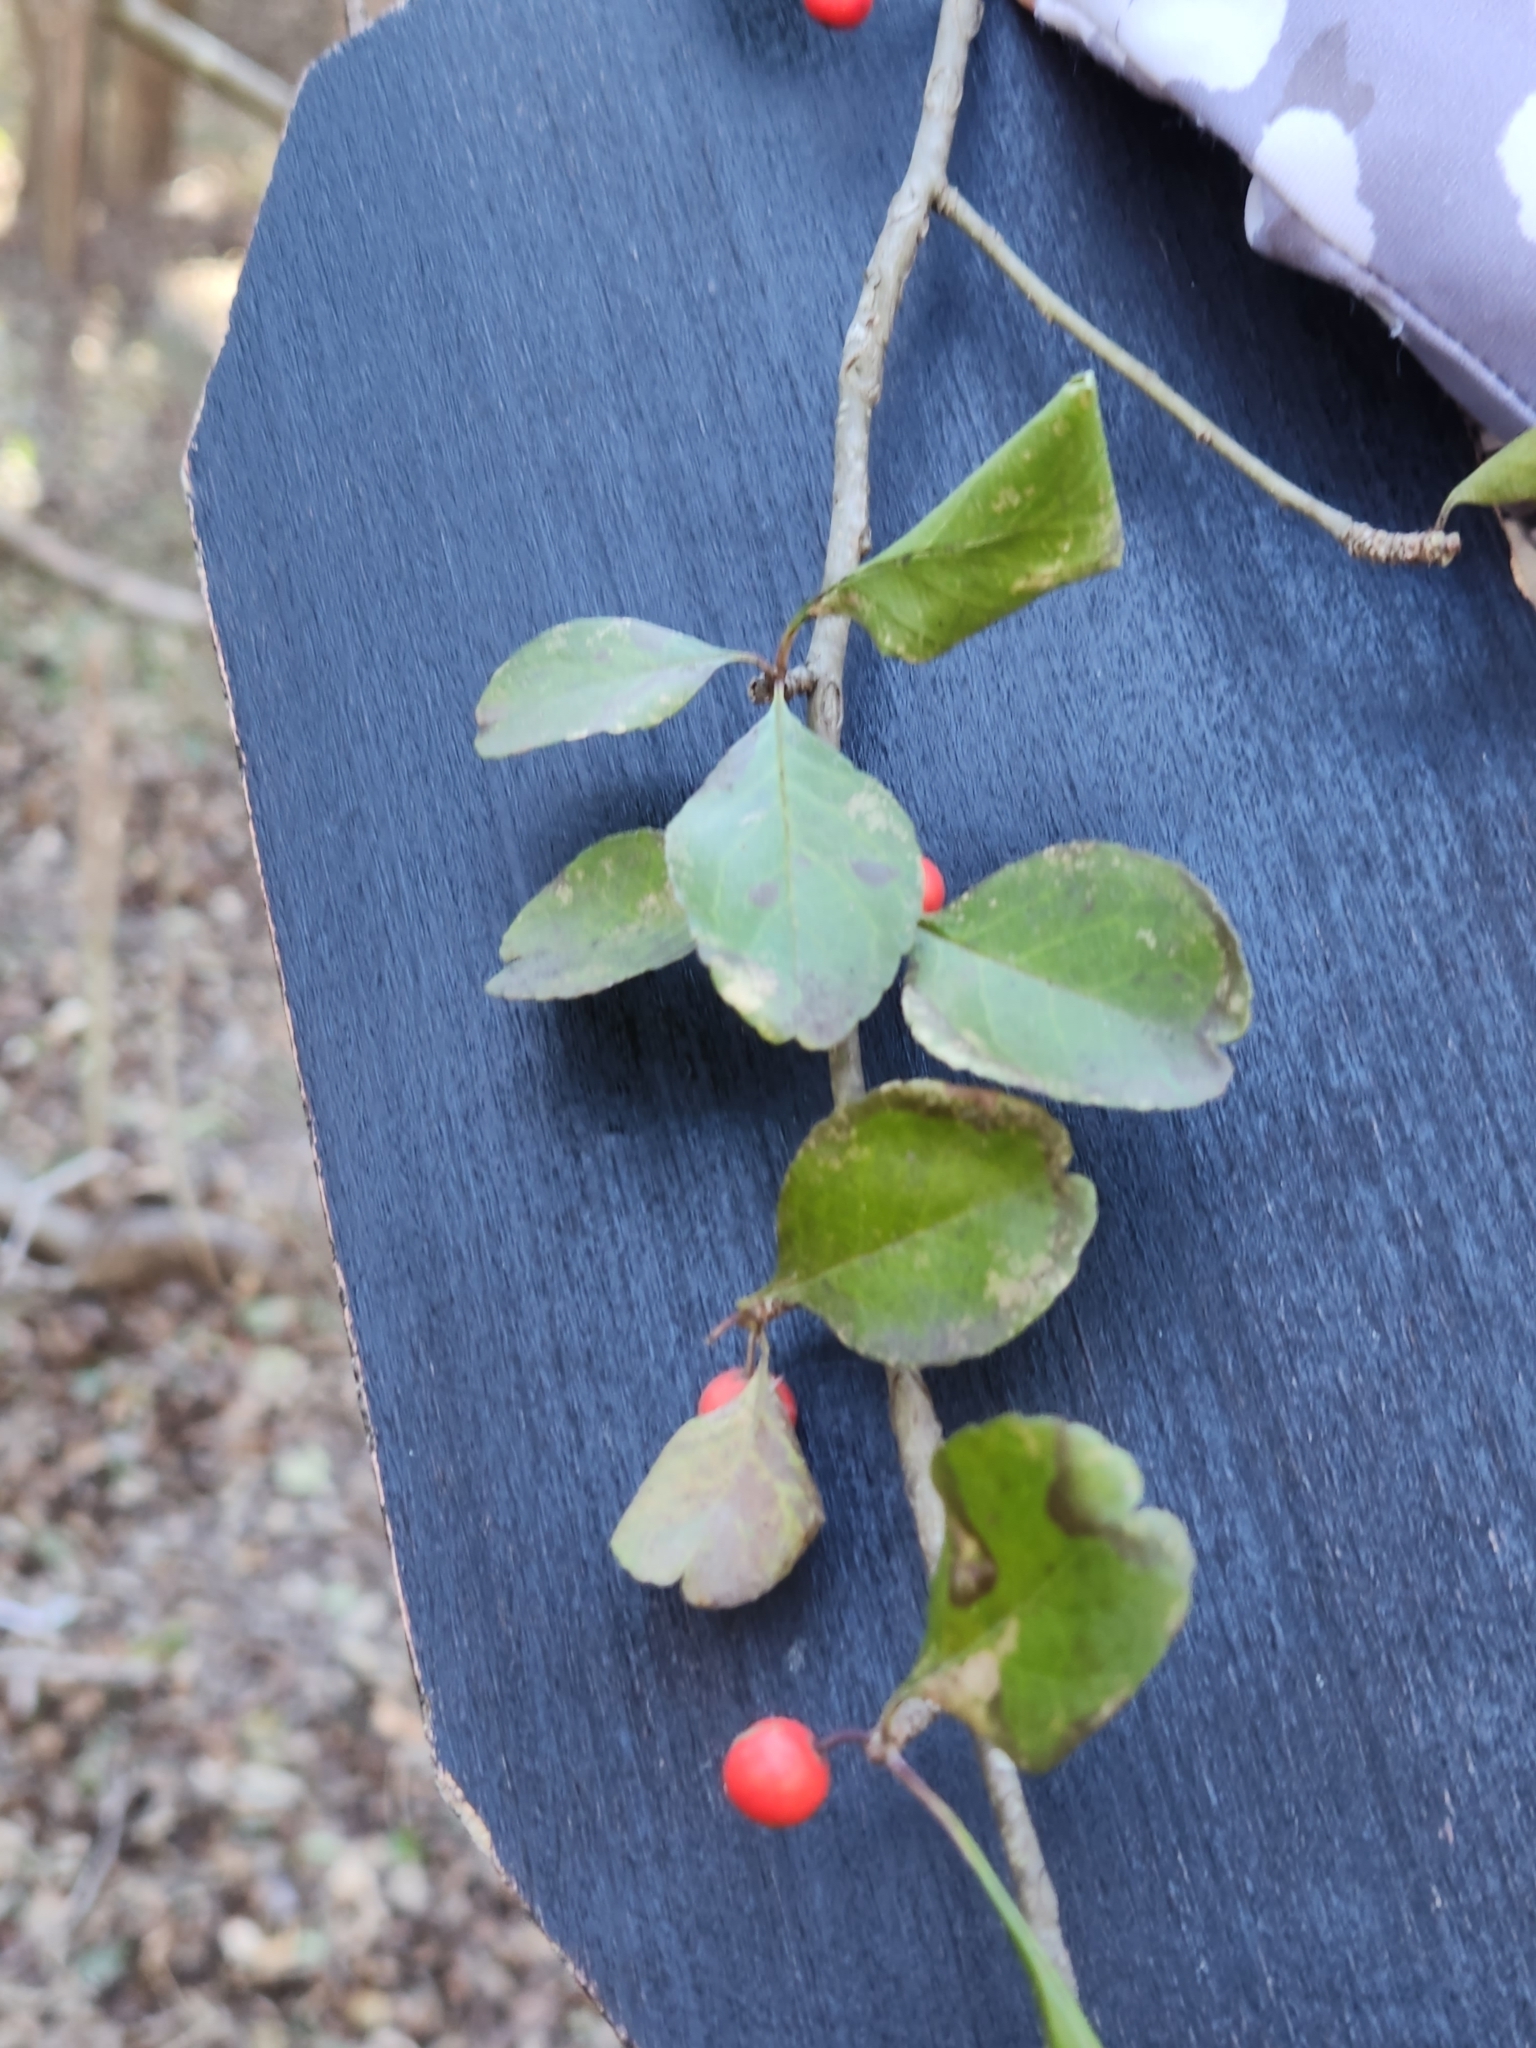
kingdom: Plantae
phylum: Tracheophyta
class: Magnoliopsida
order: Aquifoliales
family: Aquifoliaceae
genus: Ilex
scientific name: Ilex decidua
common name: Possum-haw
